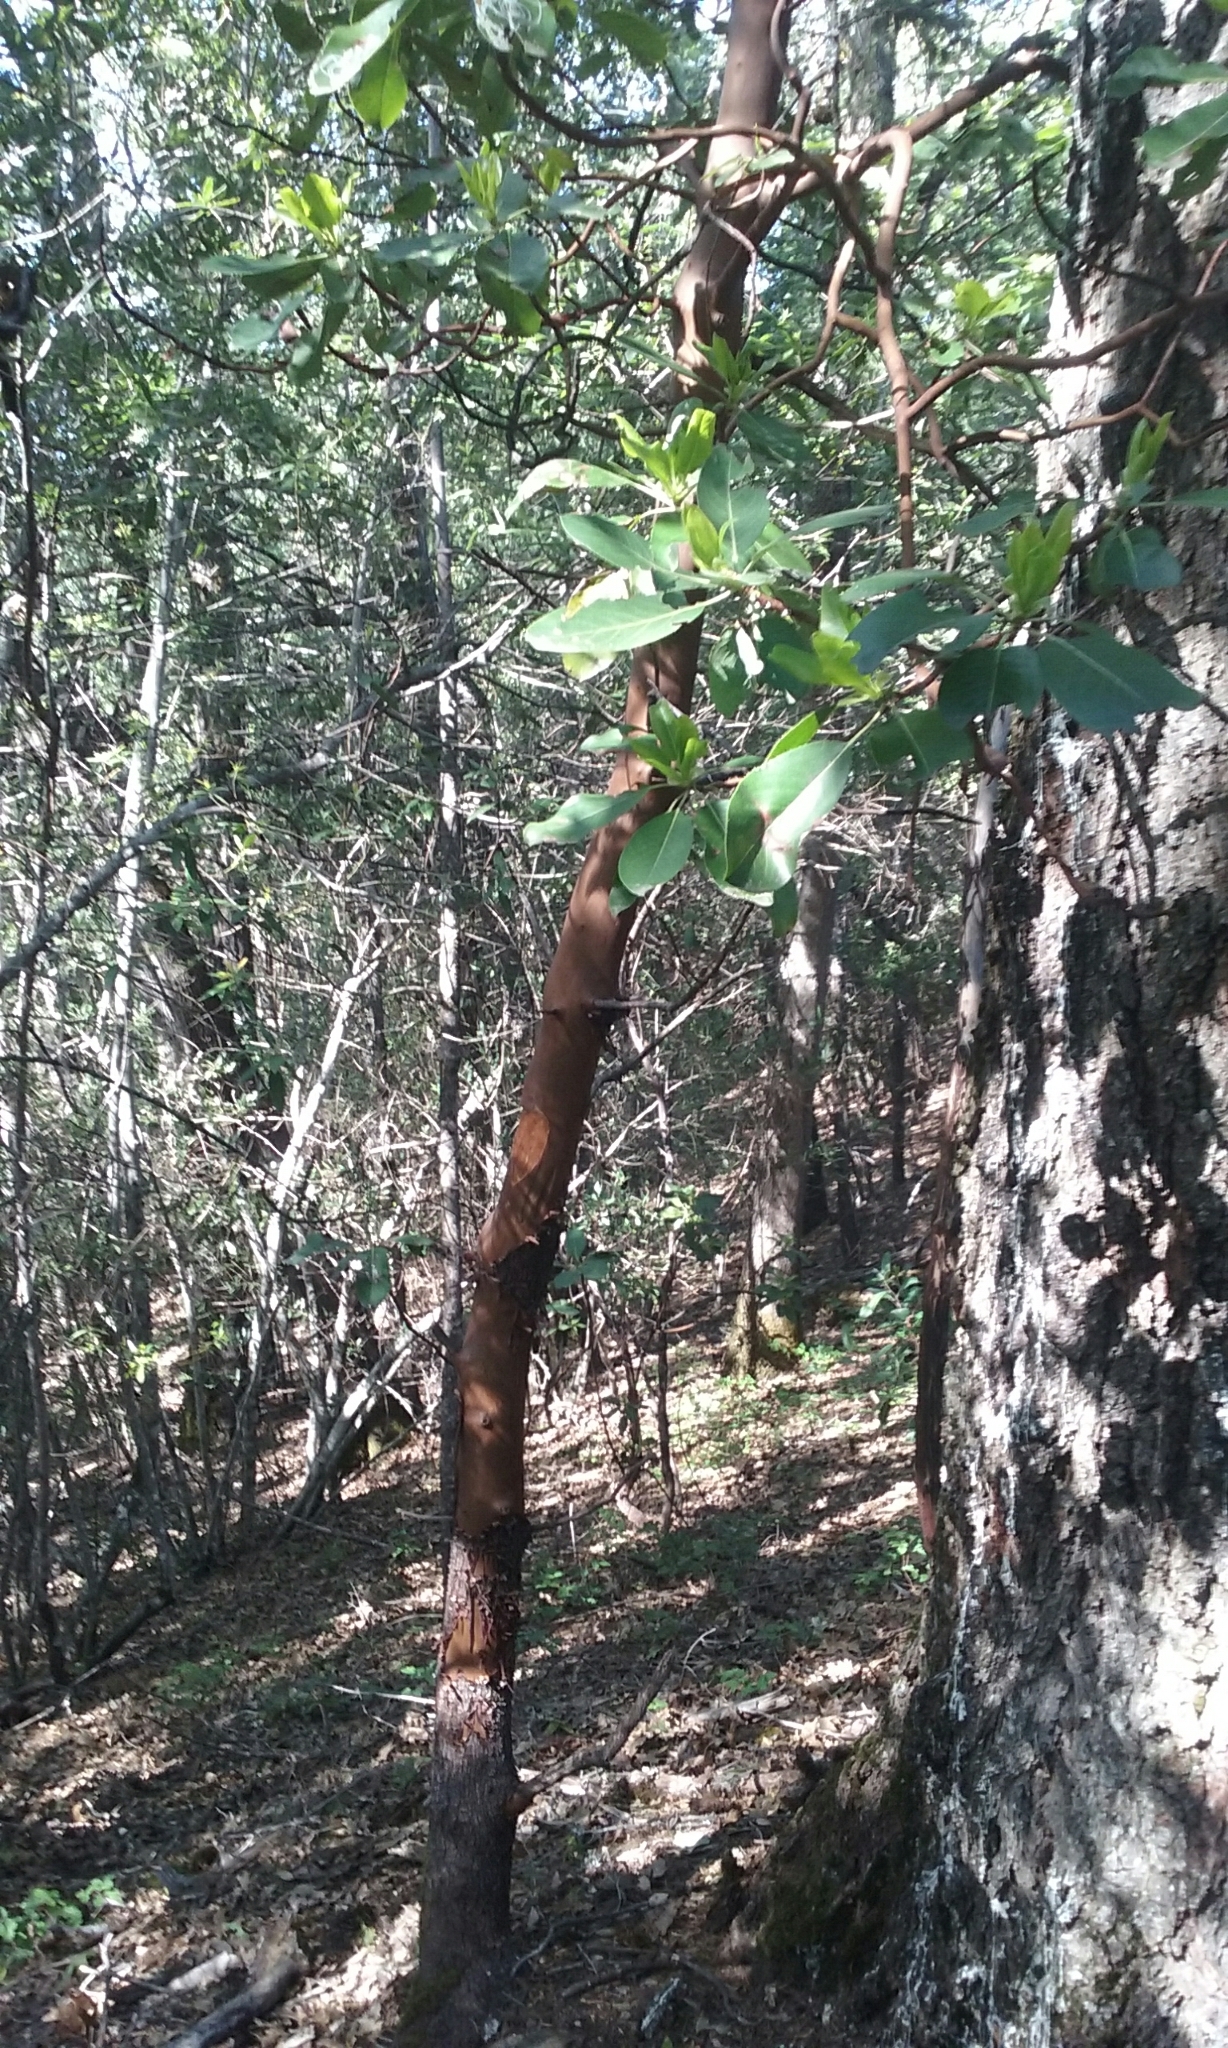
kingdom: Plantae
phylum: Tracheophyta
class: Magnoliopsida
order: Ericales
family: Ericaceae
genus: Arbutus
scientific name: Arbutus menziesii
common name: Pacific madrone
